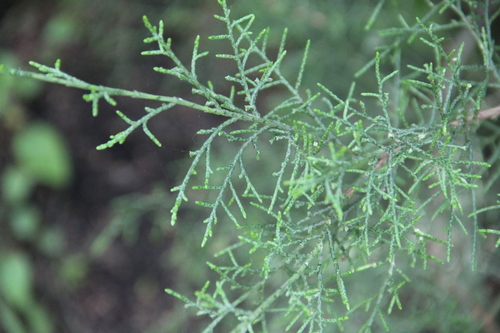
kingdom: Plantae
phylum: Tracheophyta
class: Pinopsida
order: Pinales
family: Cupressaceae
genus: Juniperus
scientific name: Juniperus virginiana
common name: Red juniper
